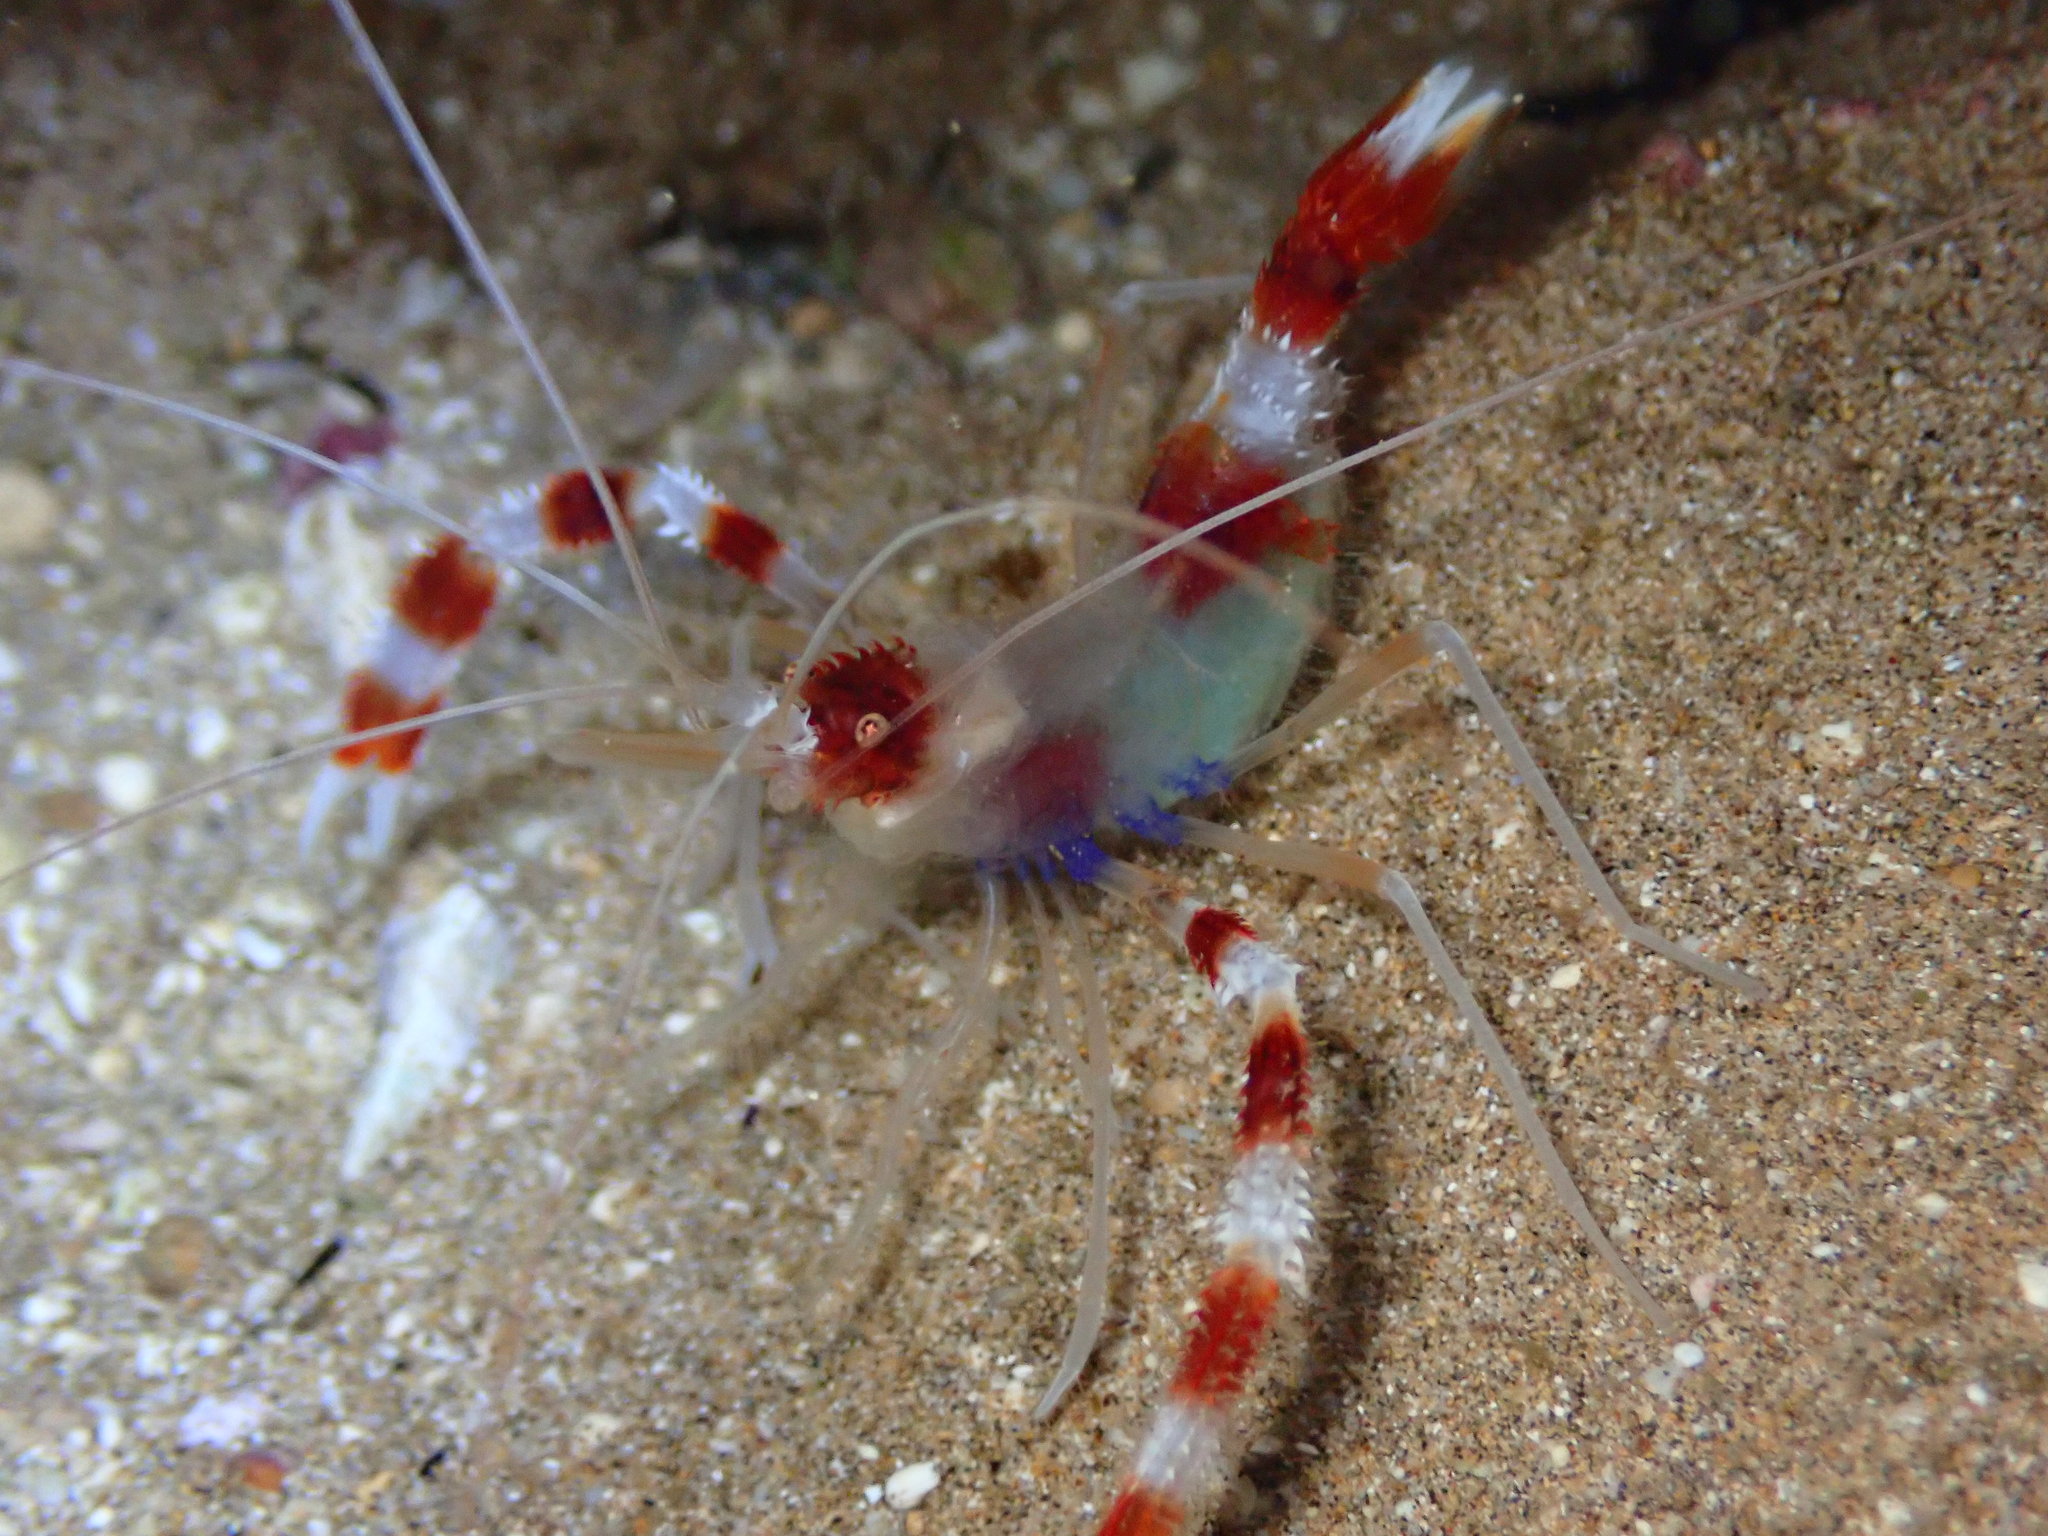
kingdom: Animalia
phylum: Arthropoda
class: Malacostraca
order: Decapoda
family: Stenopodidae
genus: Stenopus
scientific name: Stenopus hispidus
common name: Banded coral shrimp
